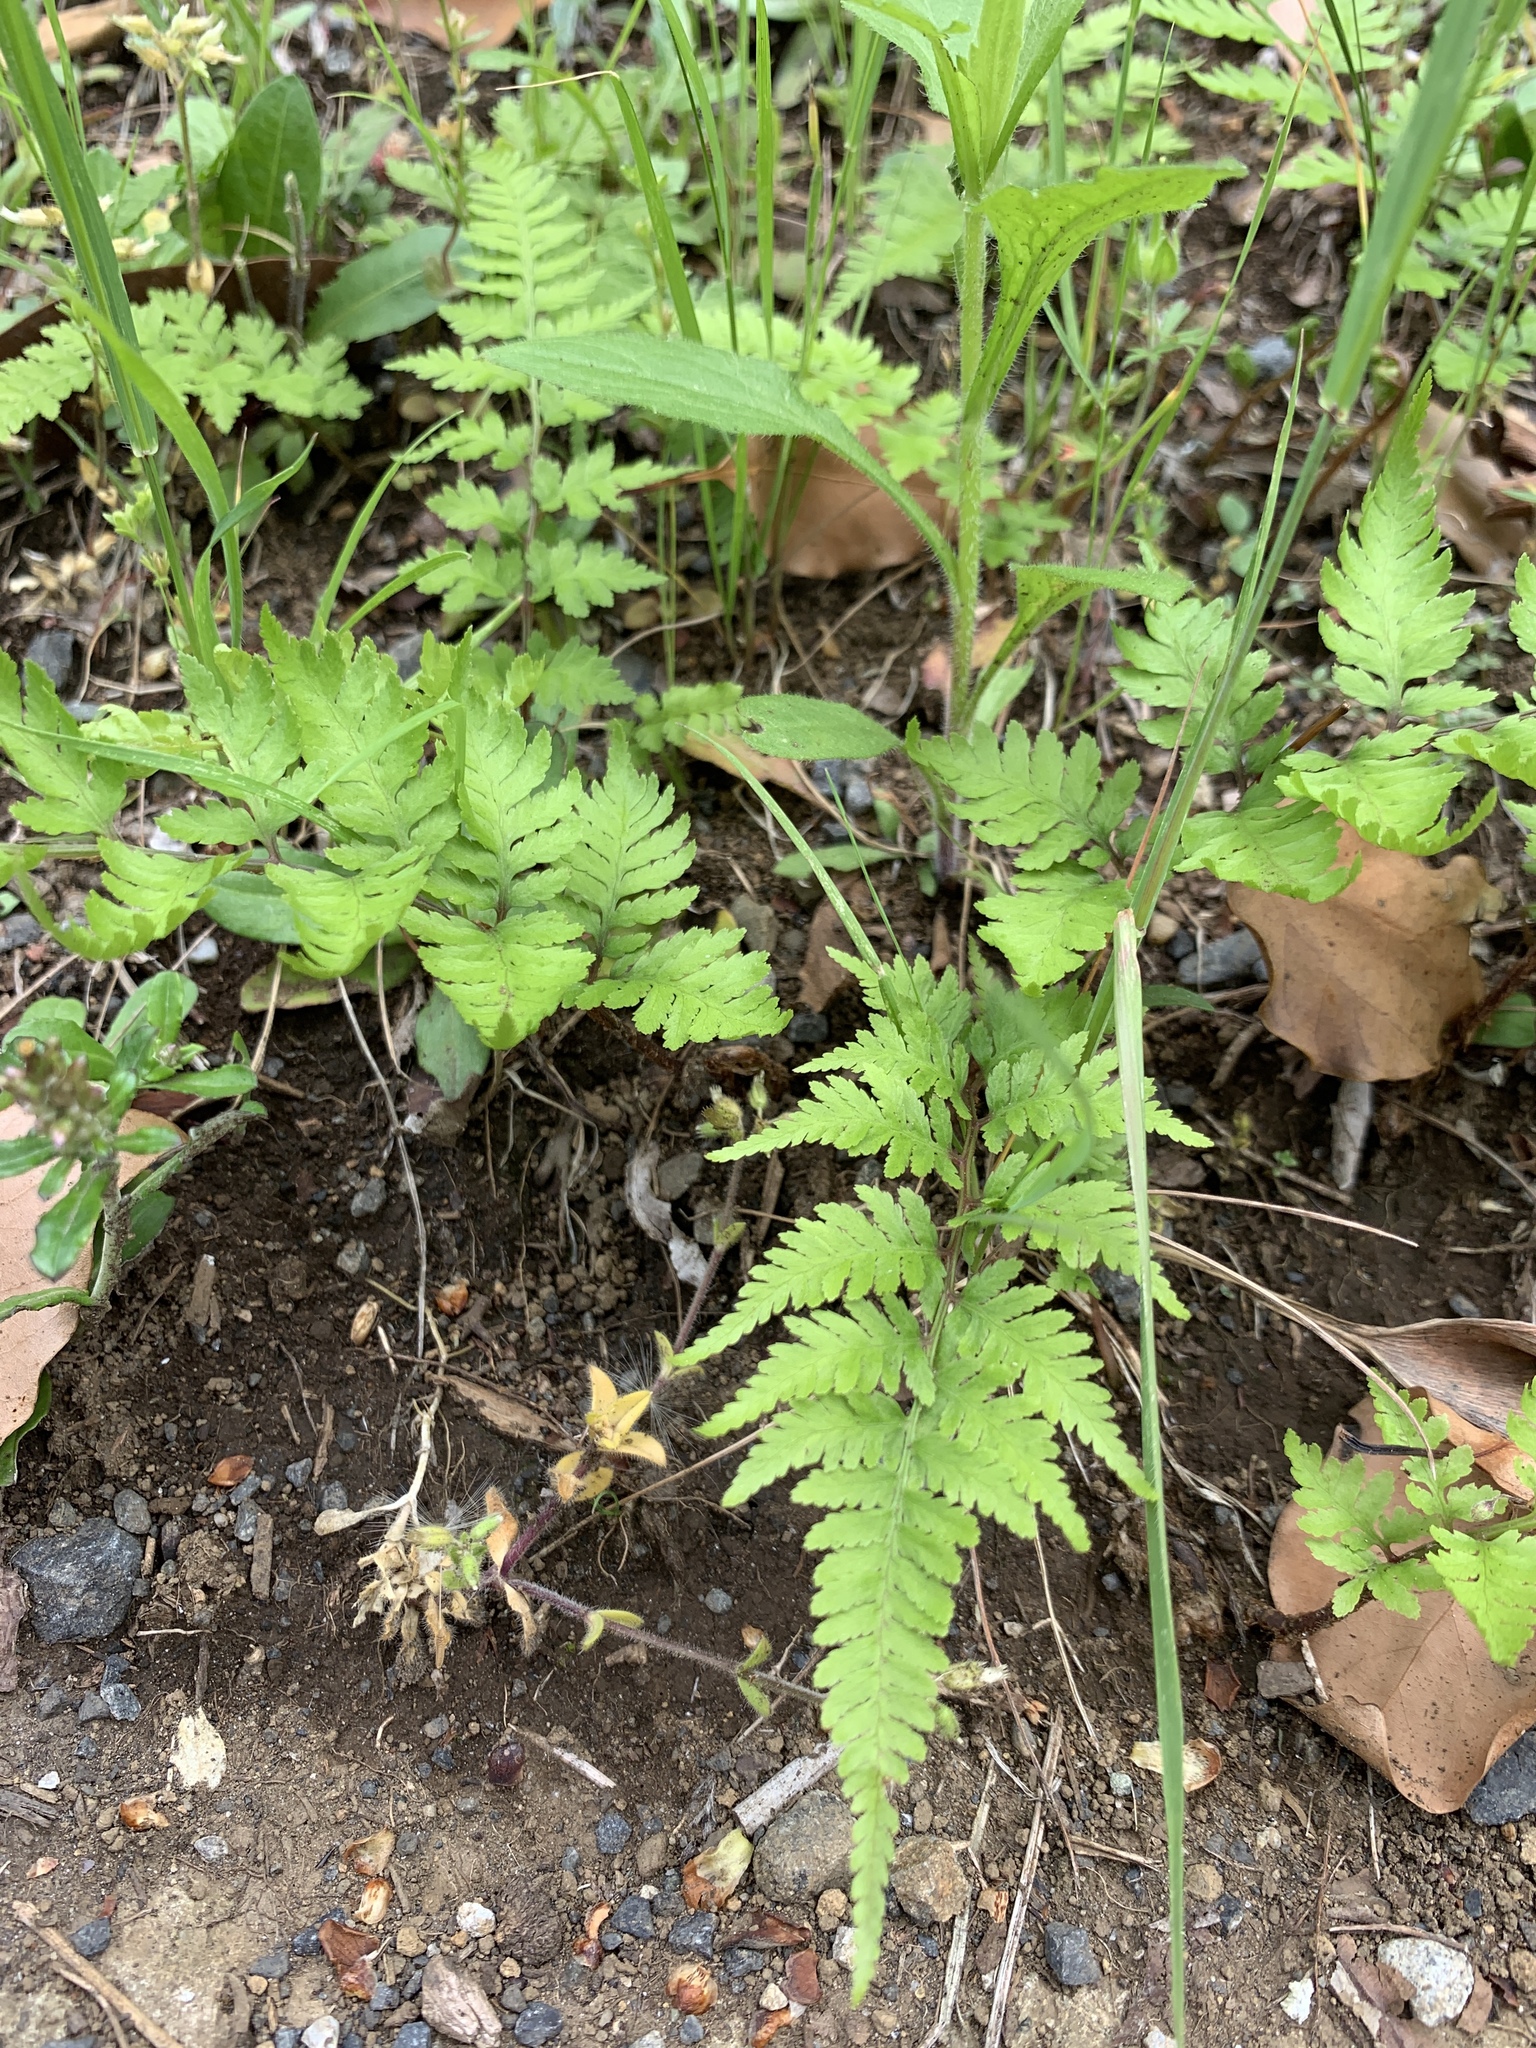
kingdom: Plantae
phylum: Tracheophyta
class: Polypodiopsida
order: Polypodiales
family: Athyriaceae
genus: Anisocampium
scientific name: Anisocampium niponicum
